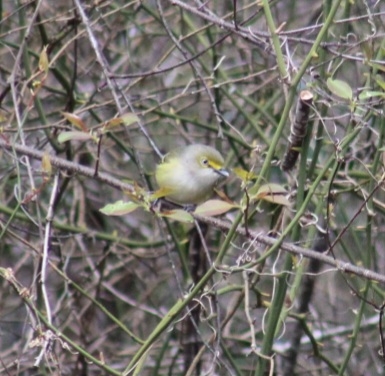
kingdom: Animalia
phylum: Chordata
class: Aves
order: Passeriformes
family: Vireonidae
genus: Vireo
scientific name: Vireo griseus
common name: White-eyed vireo
